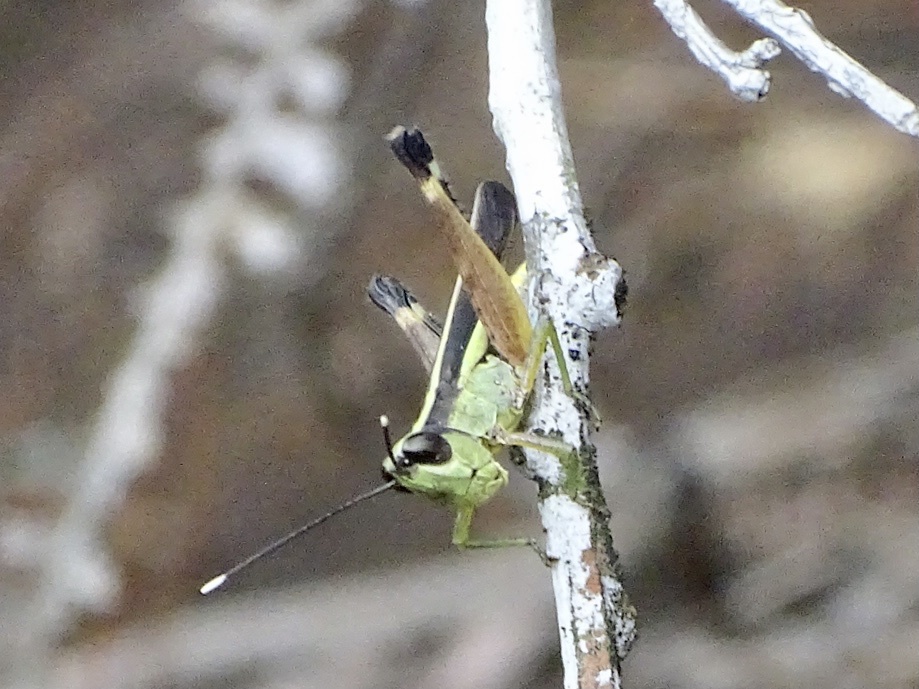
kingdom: Animalia
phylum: Arthropoda
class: Insecta
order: Orthoptera
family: Acrididae
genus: Ceracris
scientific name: Ceracris fasciata
